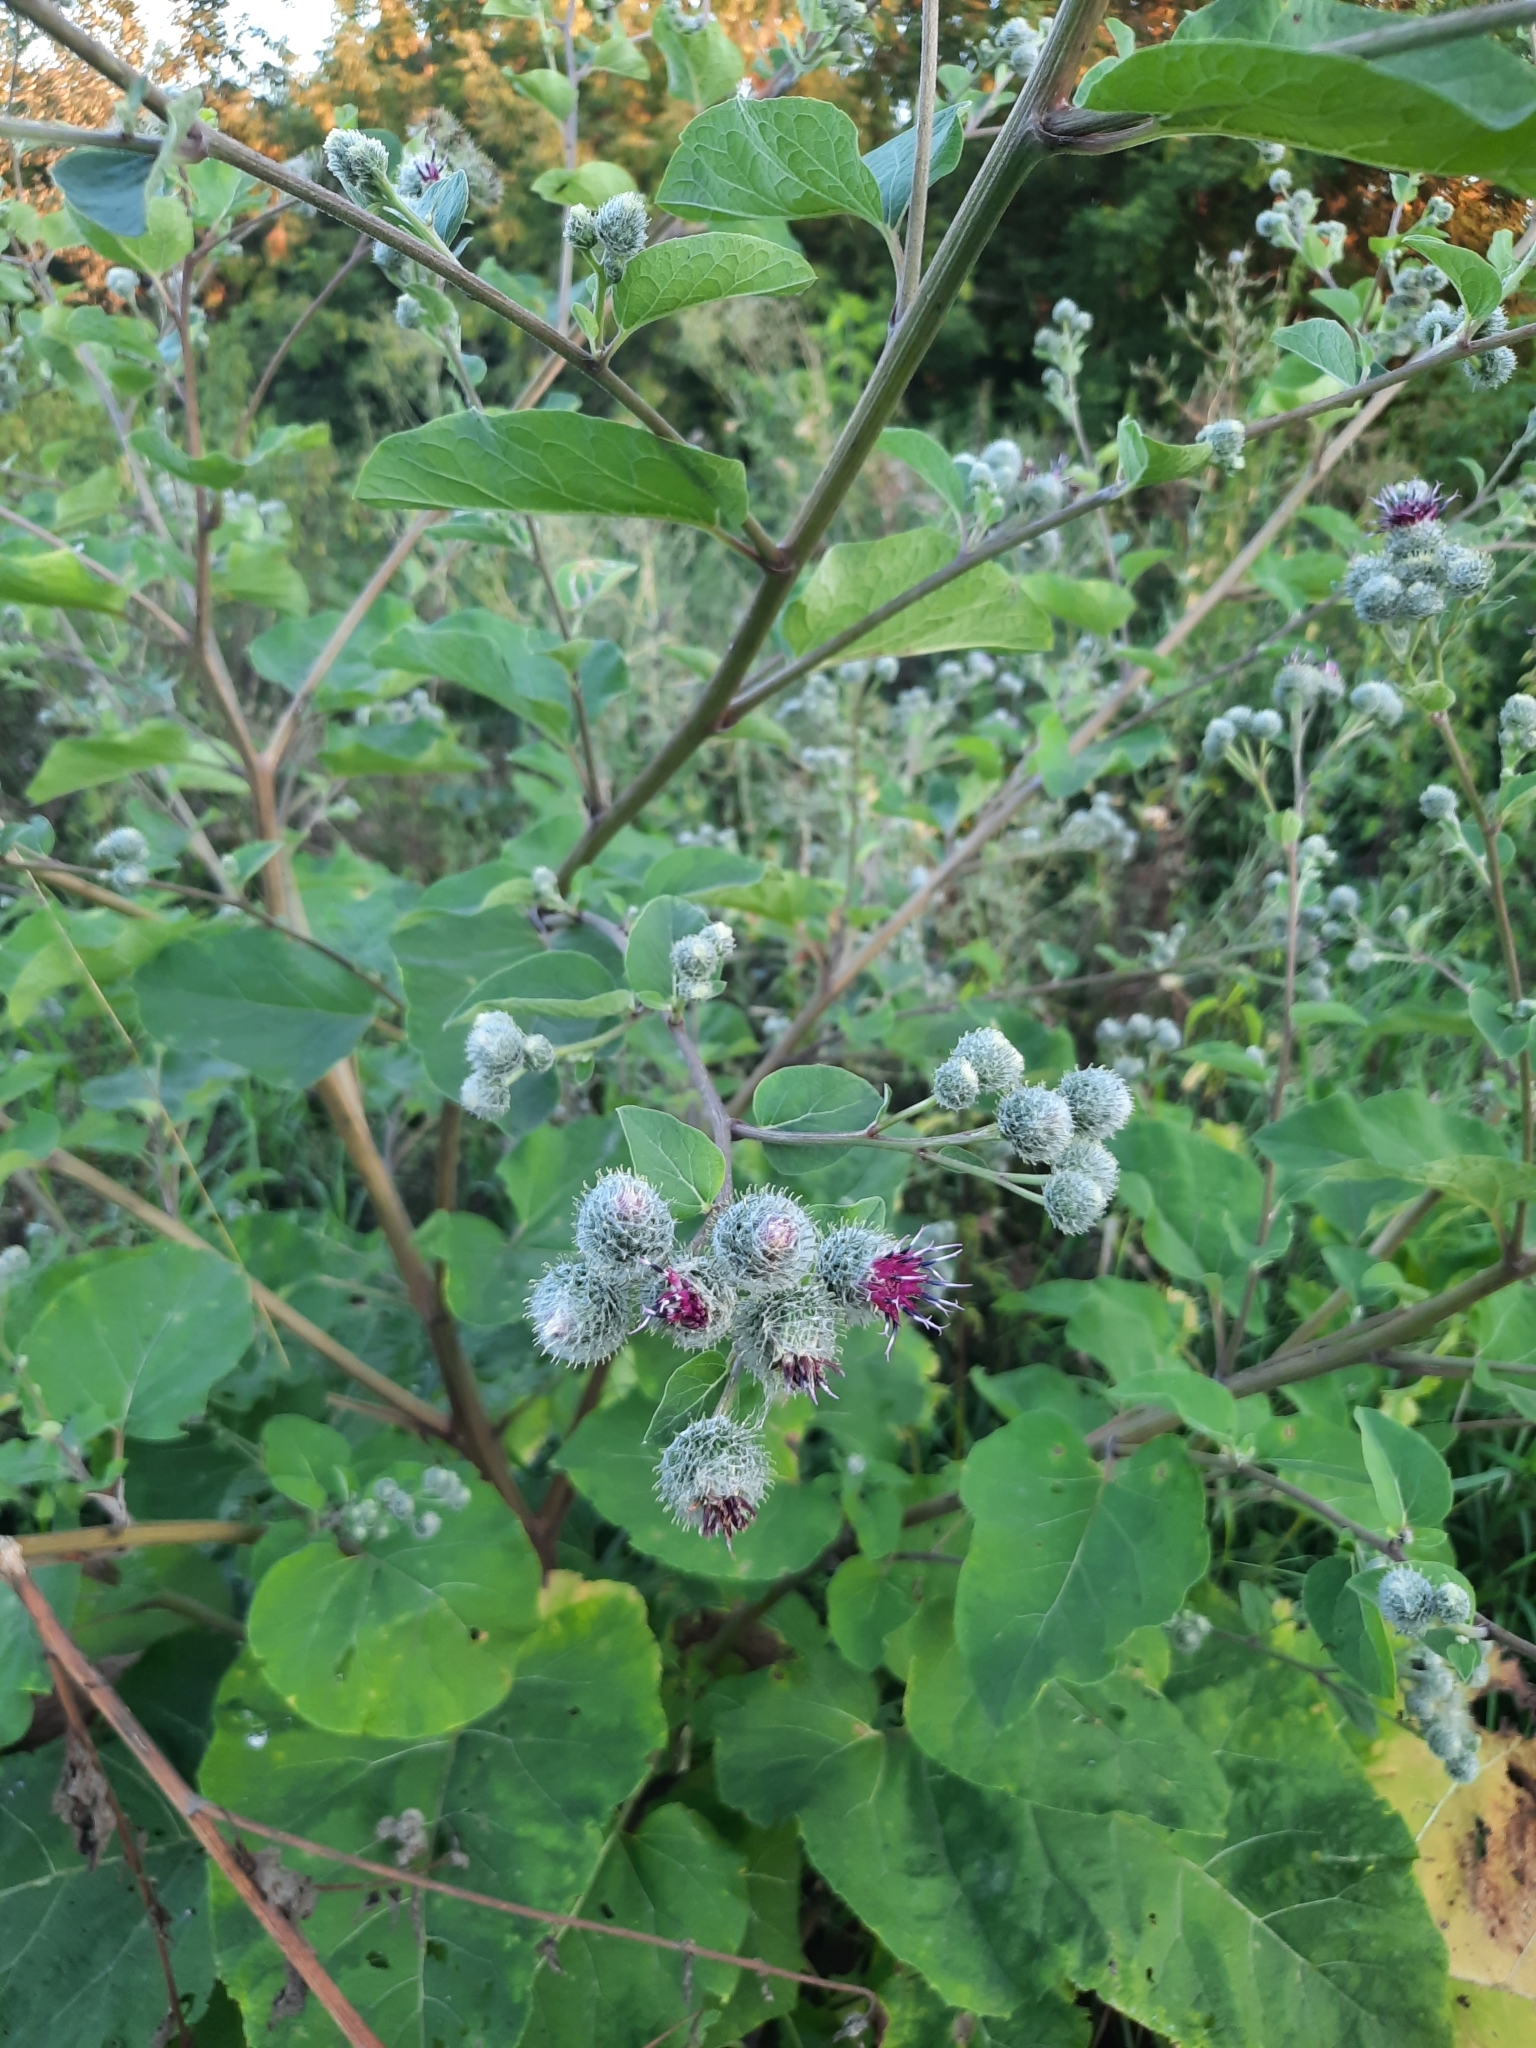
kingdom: Plantae
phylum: Tracheophyta
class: Magnoliopsida
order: Asterales
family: Asteraceae
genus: Arctium
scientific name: Arctium tomentosum
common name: Woolly burdock
